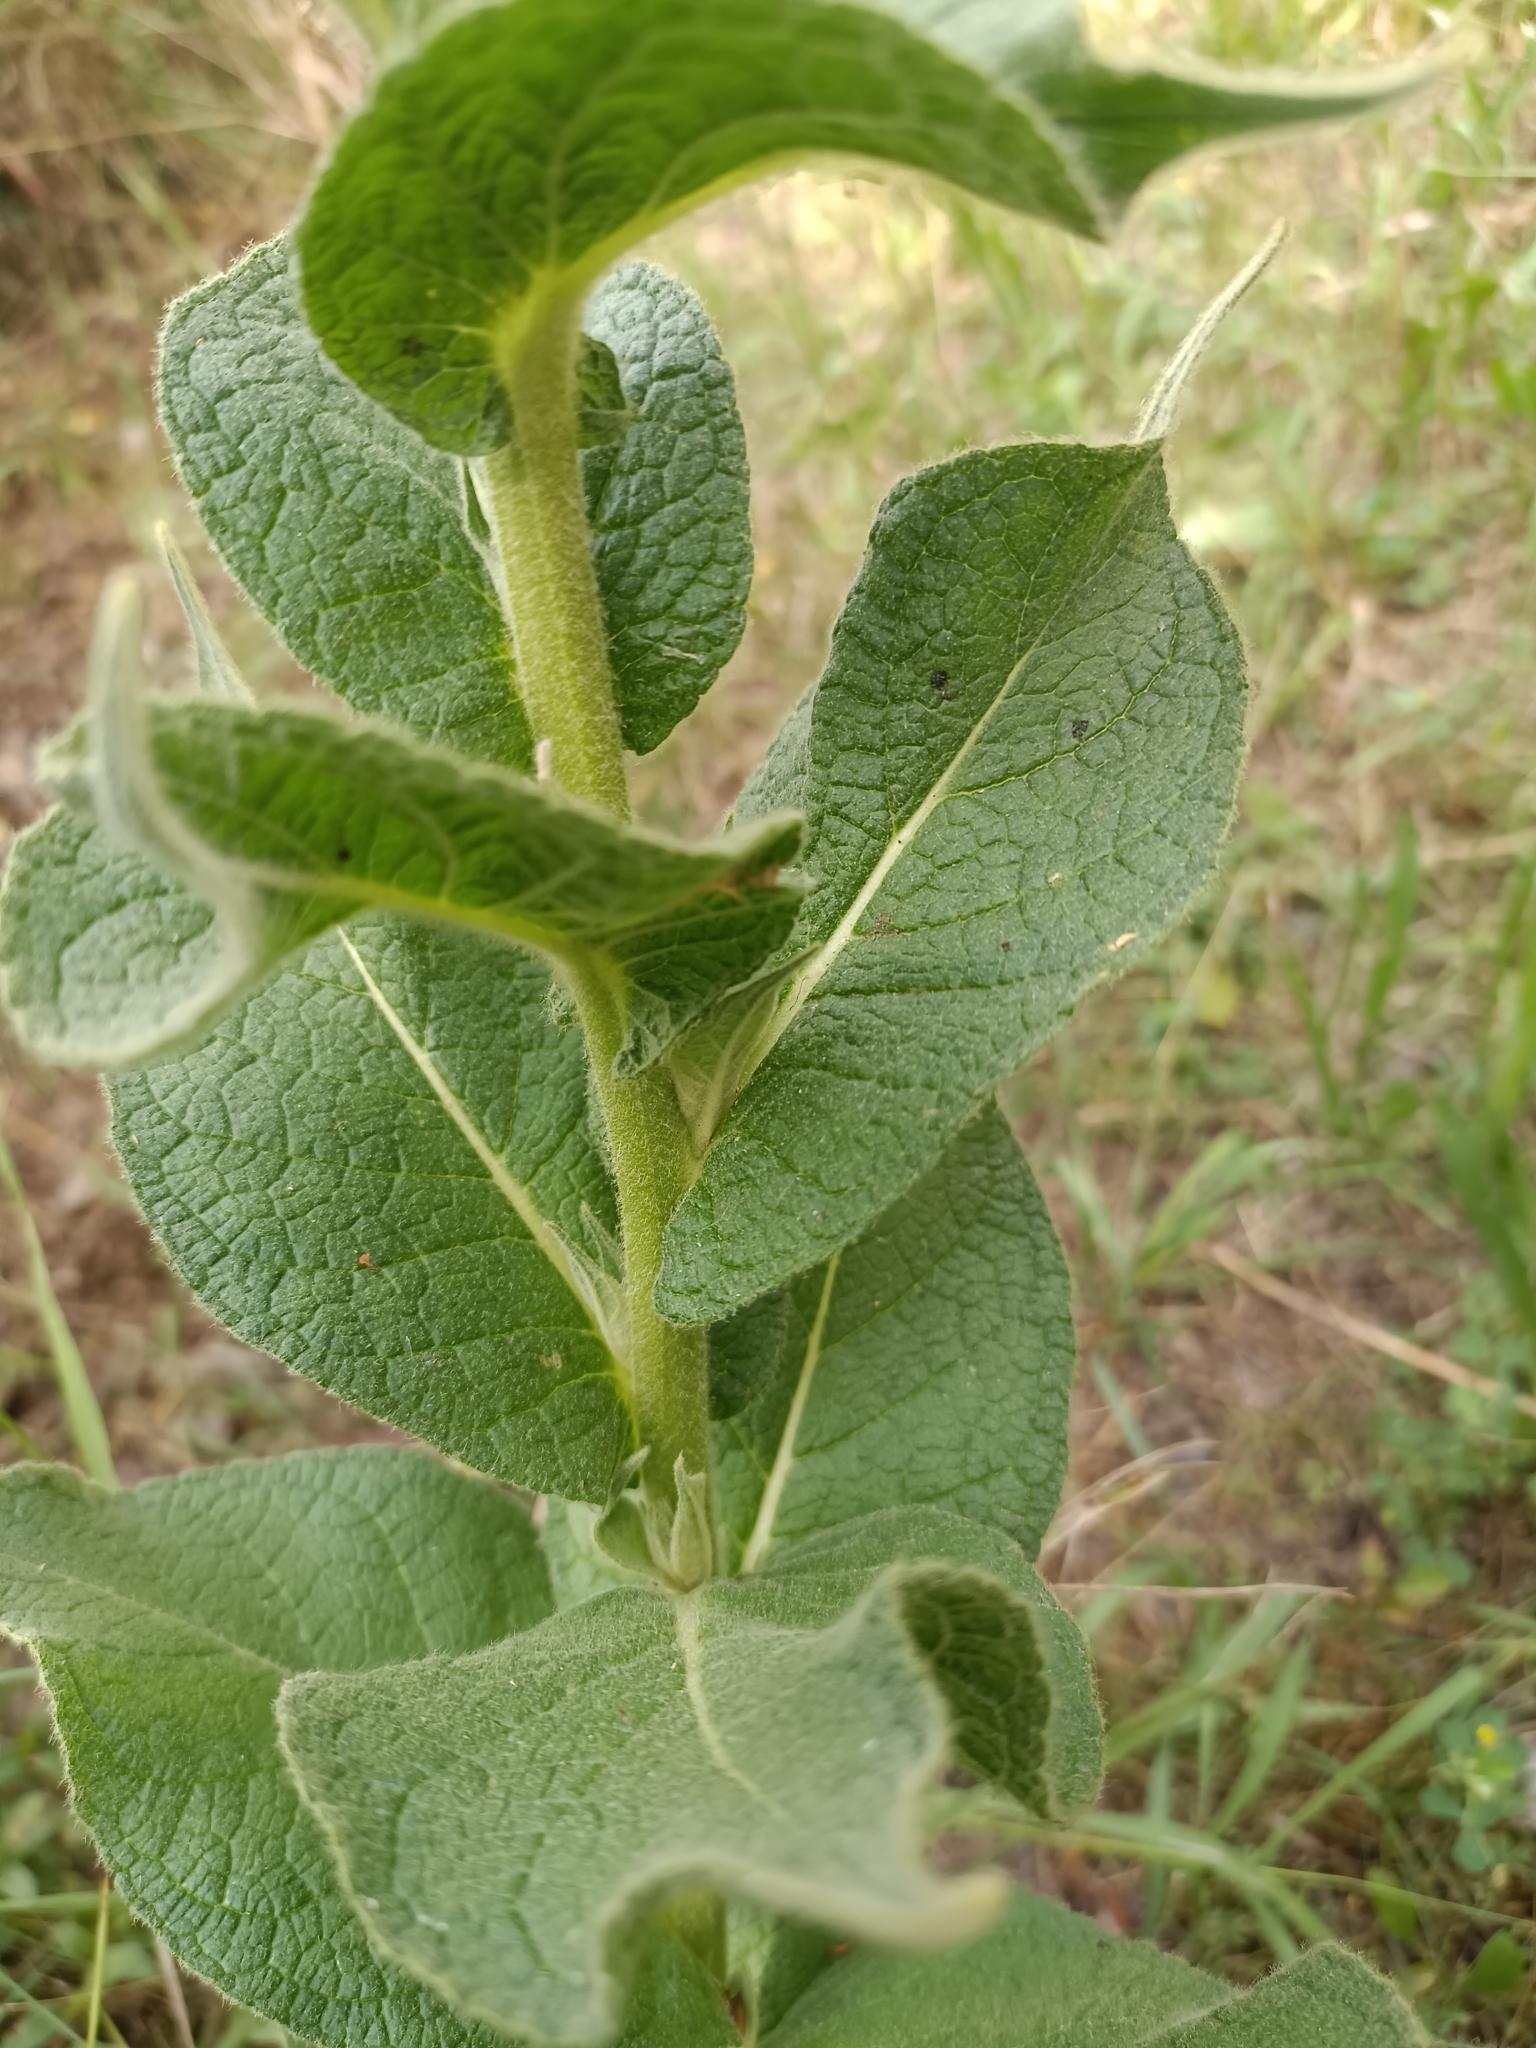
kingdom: Plantae
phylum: Tracheophyta
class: Magnoliopsida
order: Lamiales
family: Scrophulariaceae
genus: Verbascum
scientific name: Verbascum phlomoides
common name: Orange mullein
